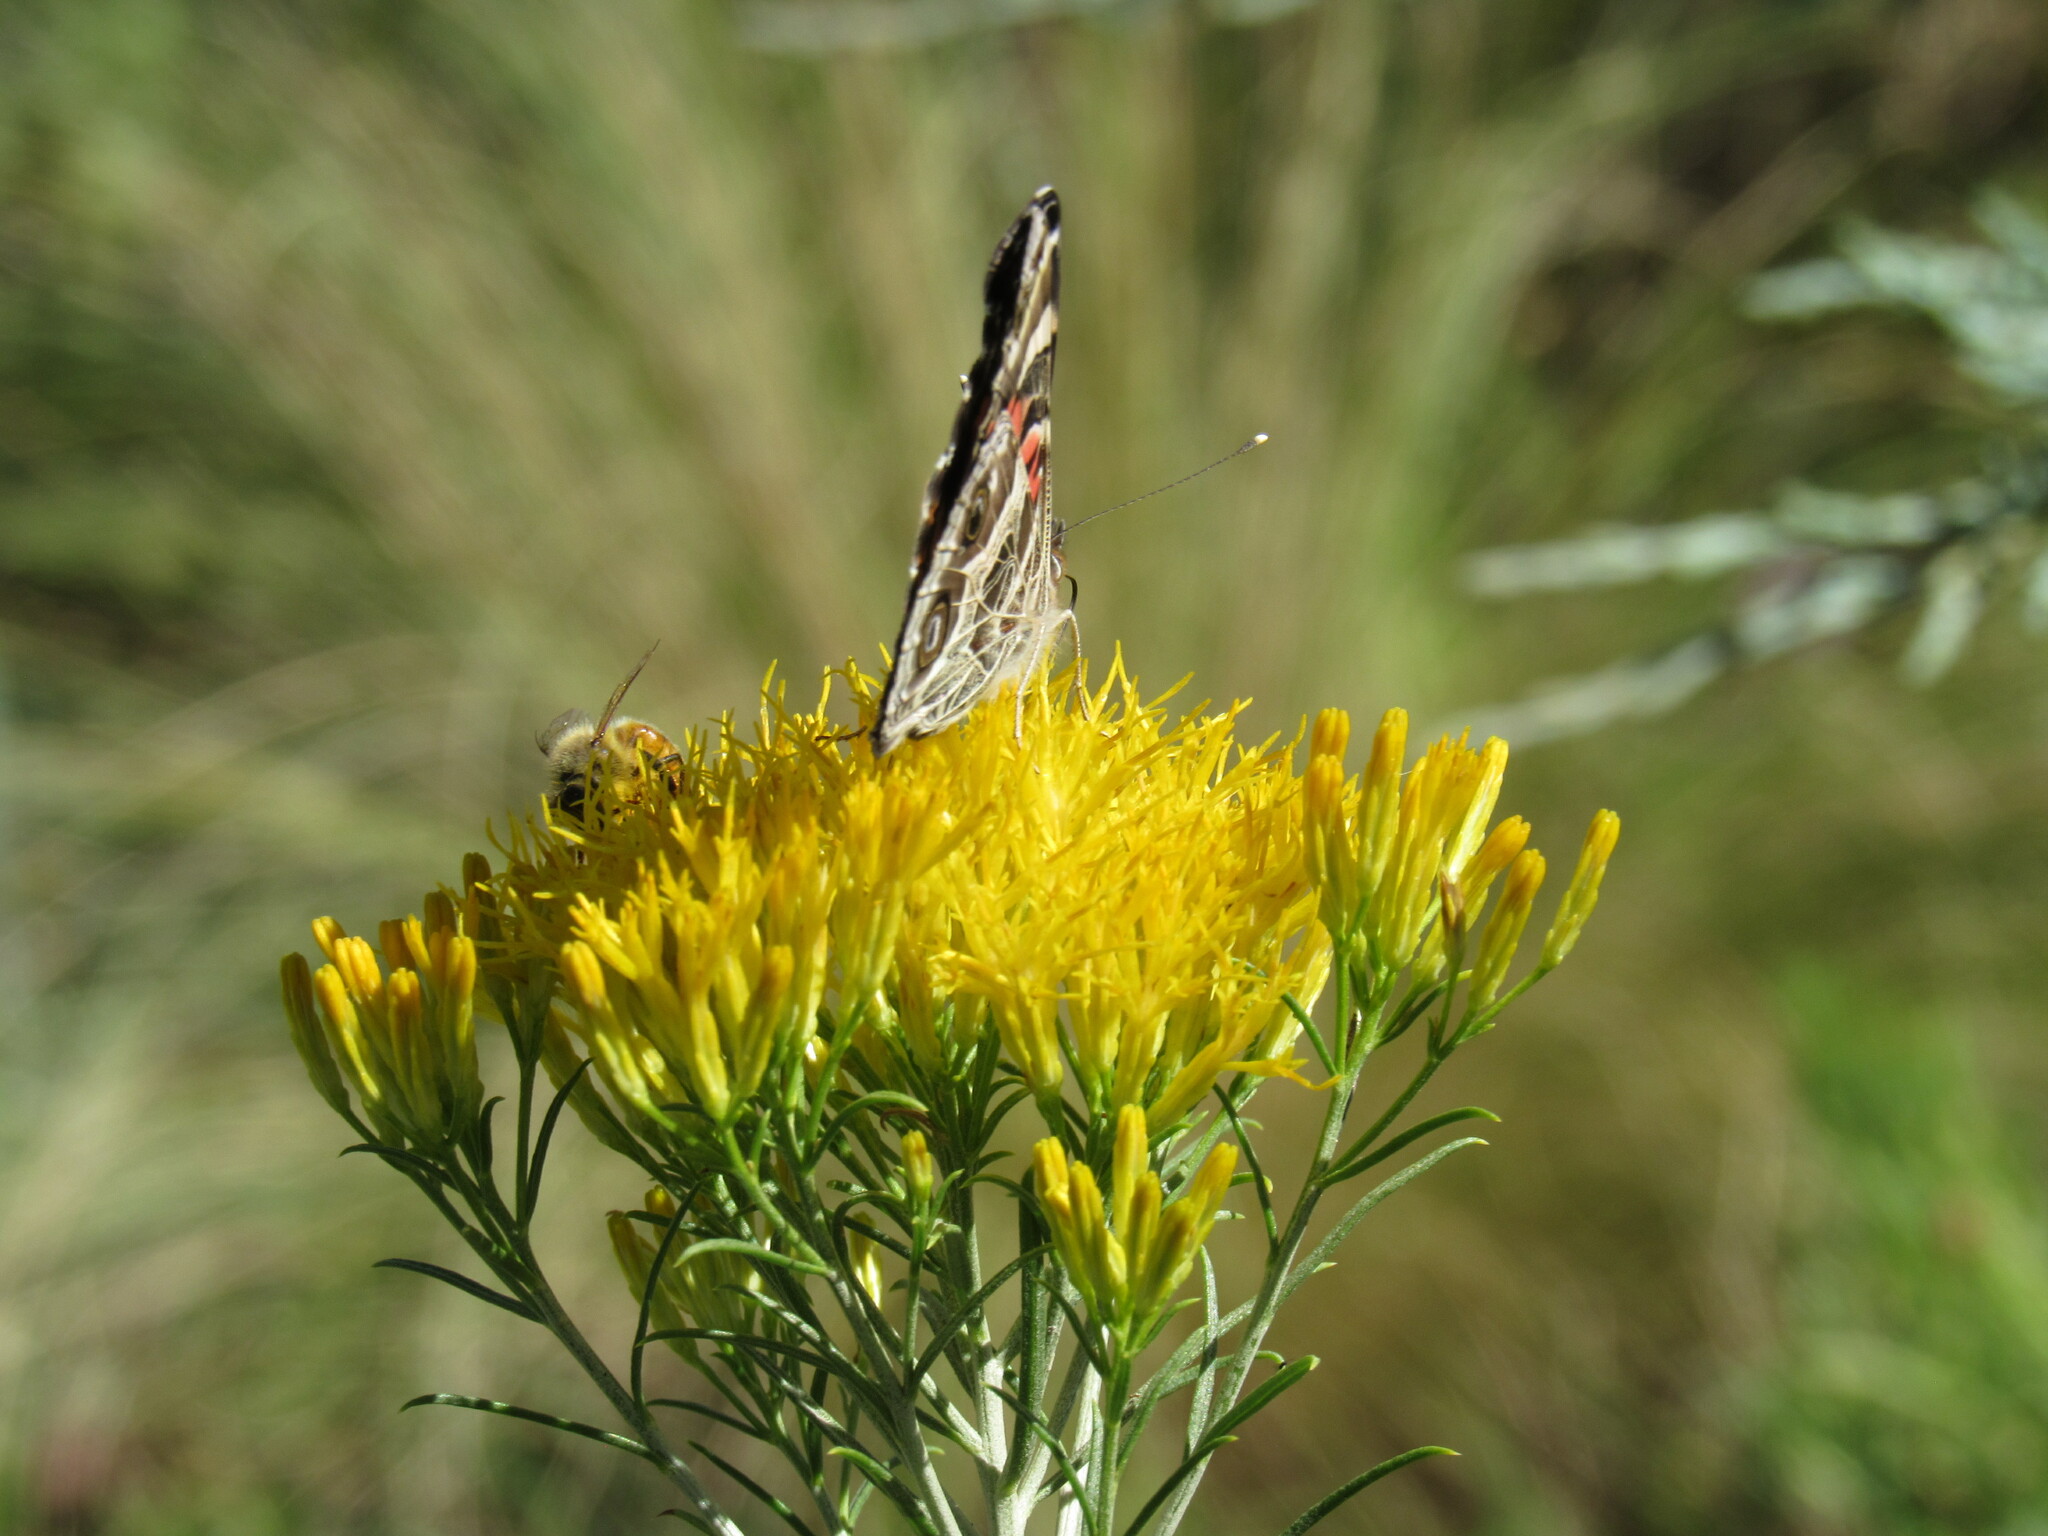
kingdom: Animalia
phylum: Arthropoda
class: Insecta
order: Lepidoptera
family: Nymphalidae
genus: Vanessa
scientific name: Vanessa virginiensis
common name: American lady
